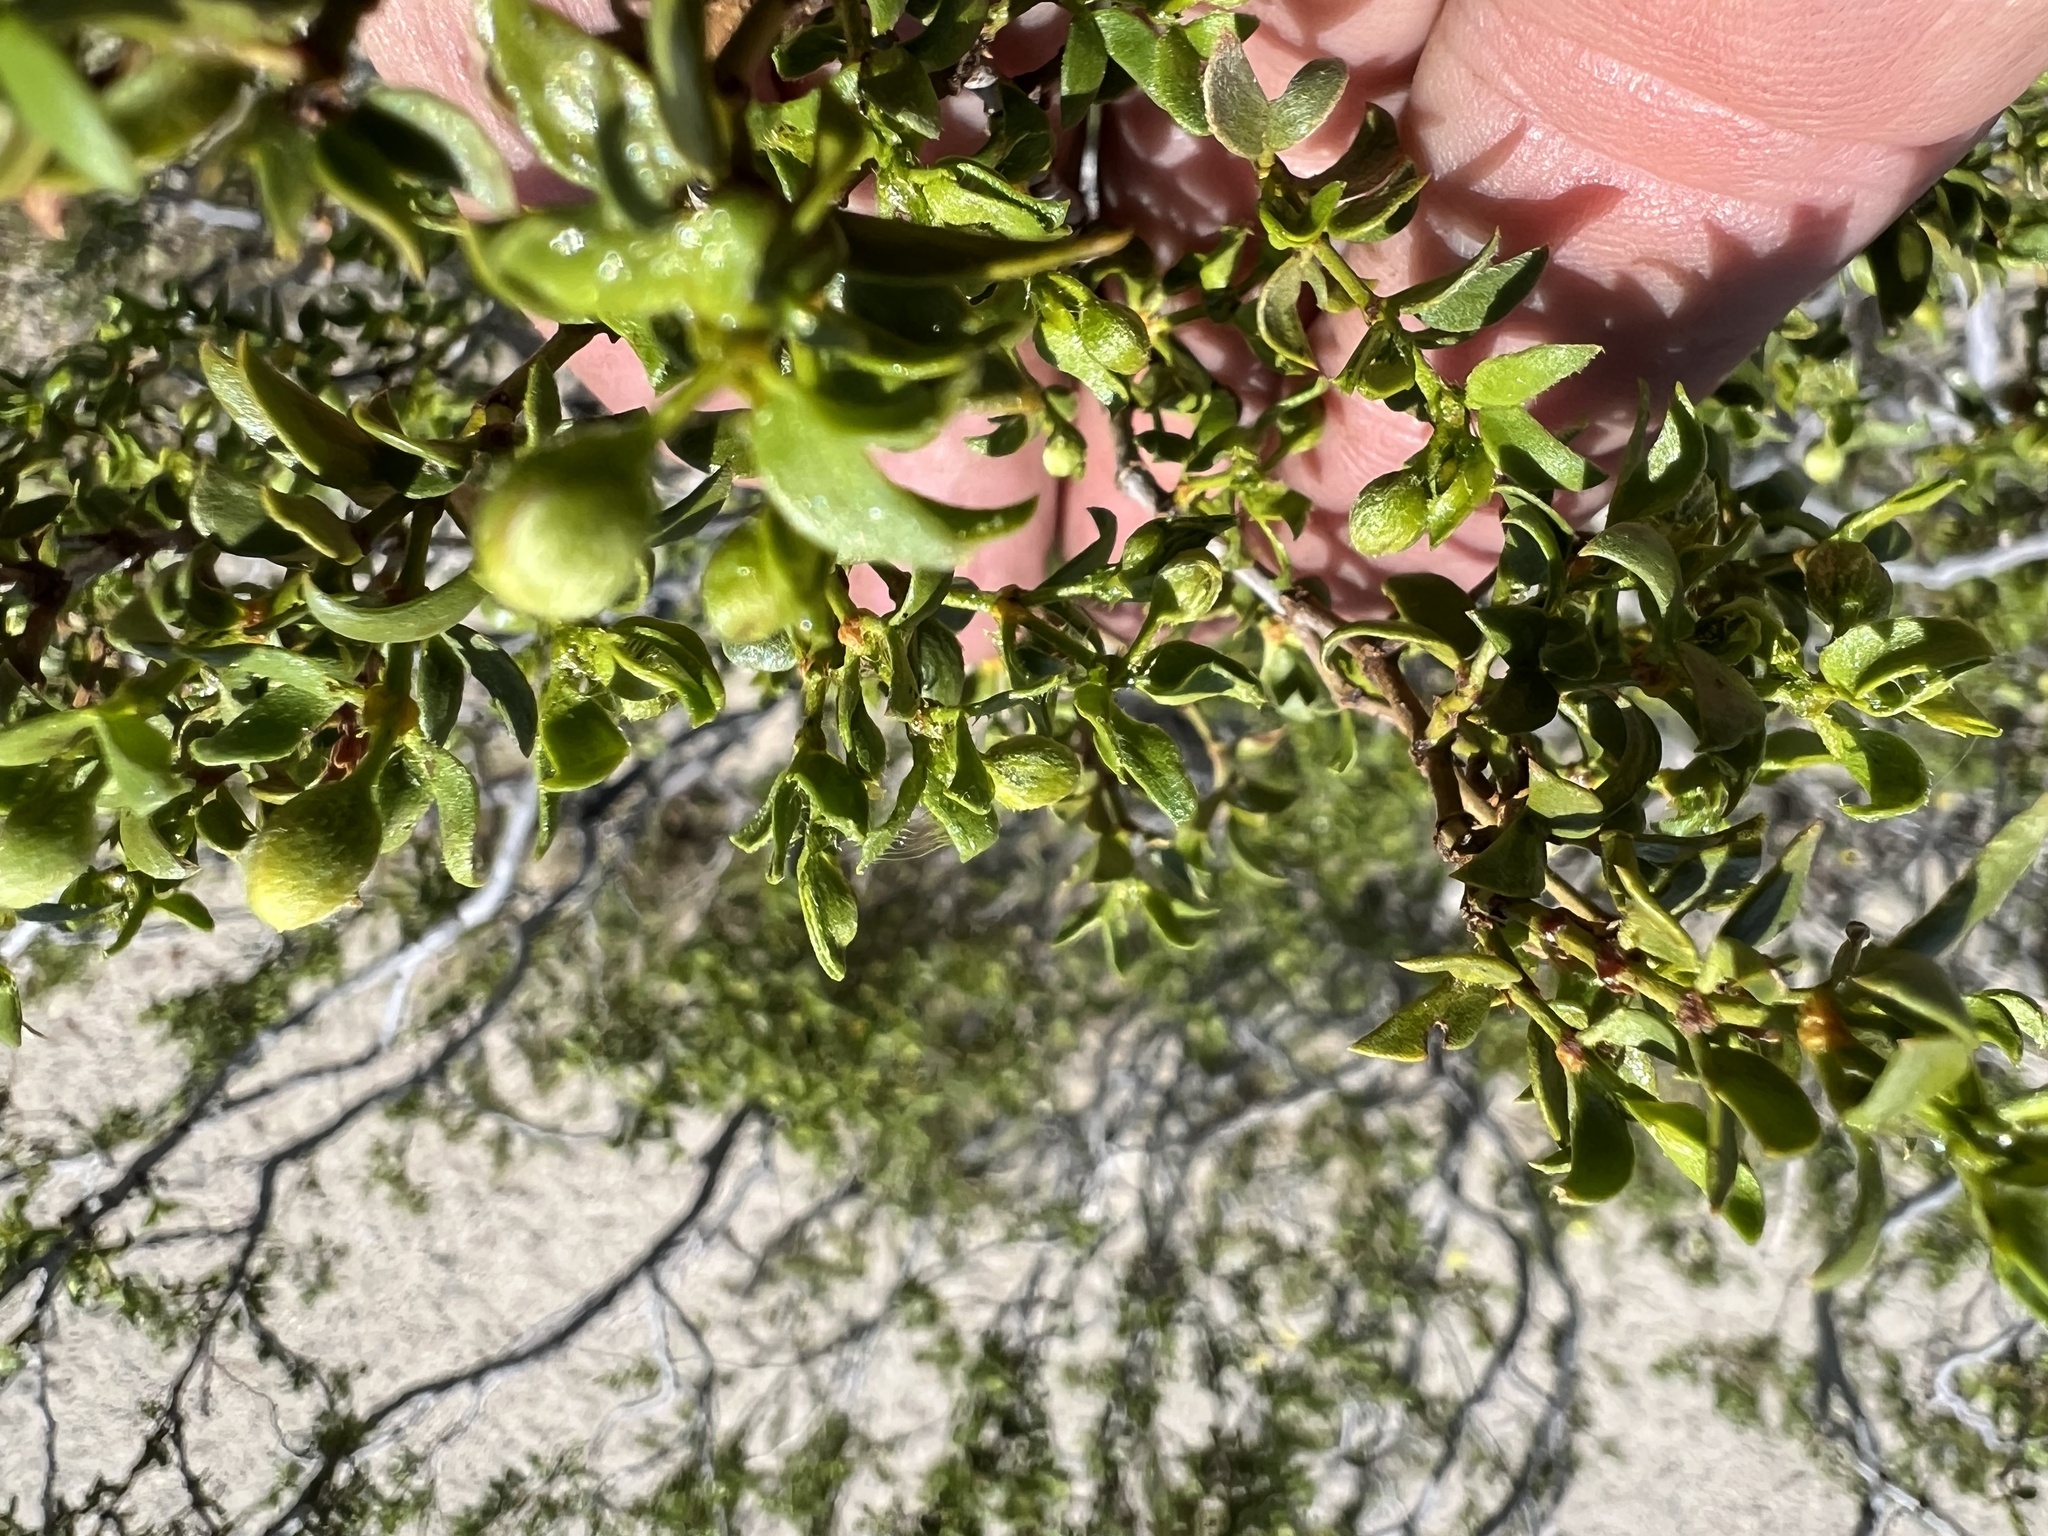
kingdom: Plantae
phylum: Tracheophyta
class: Magnoliopsida
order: Zygophyllales
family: Zygophyllaceae
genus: Larrea
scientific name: Larrea tridentata
